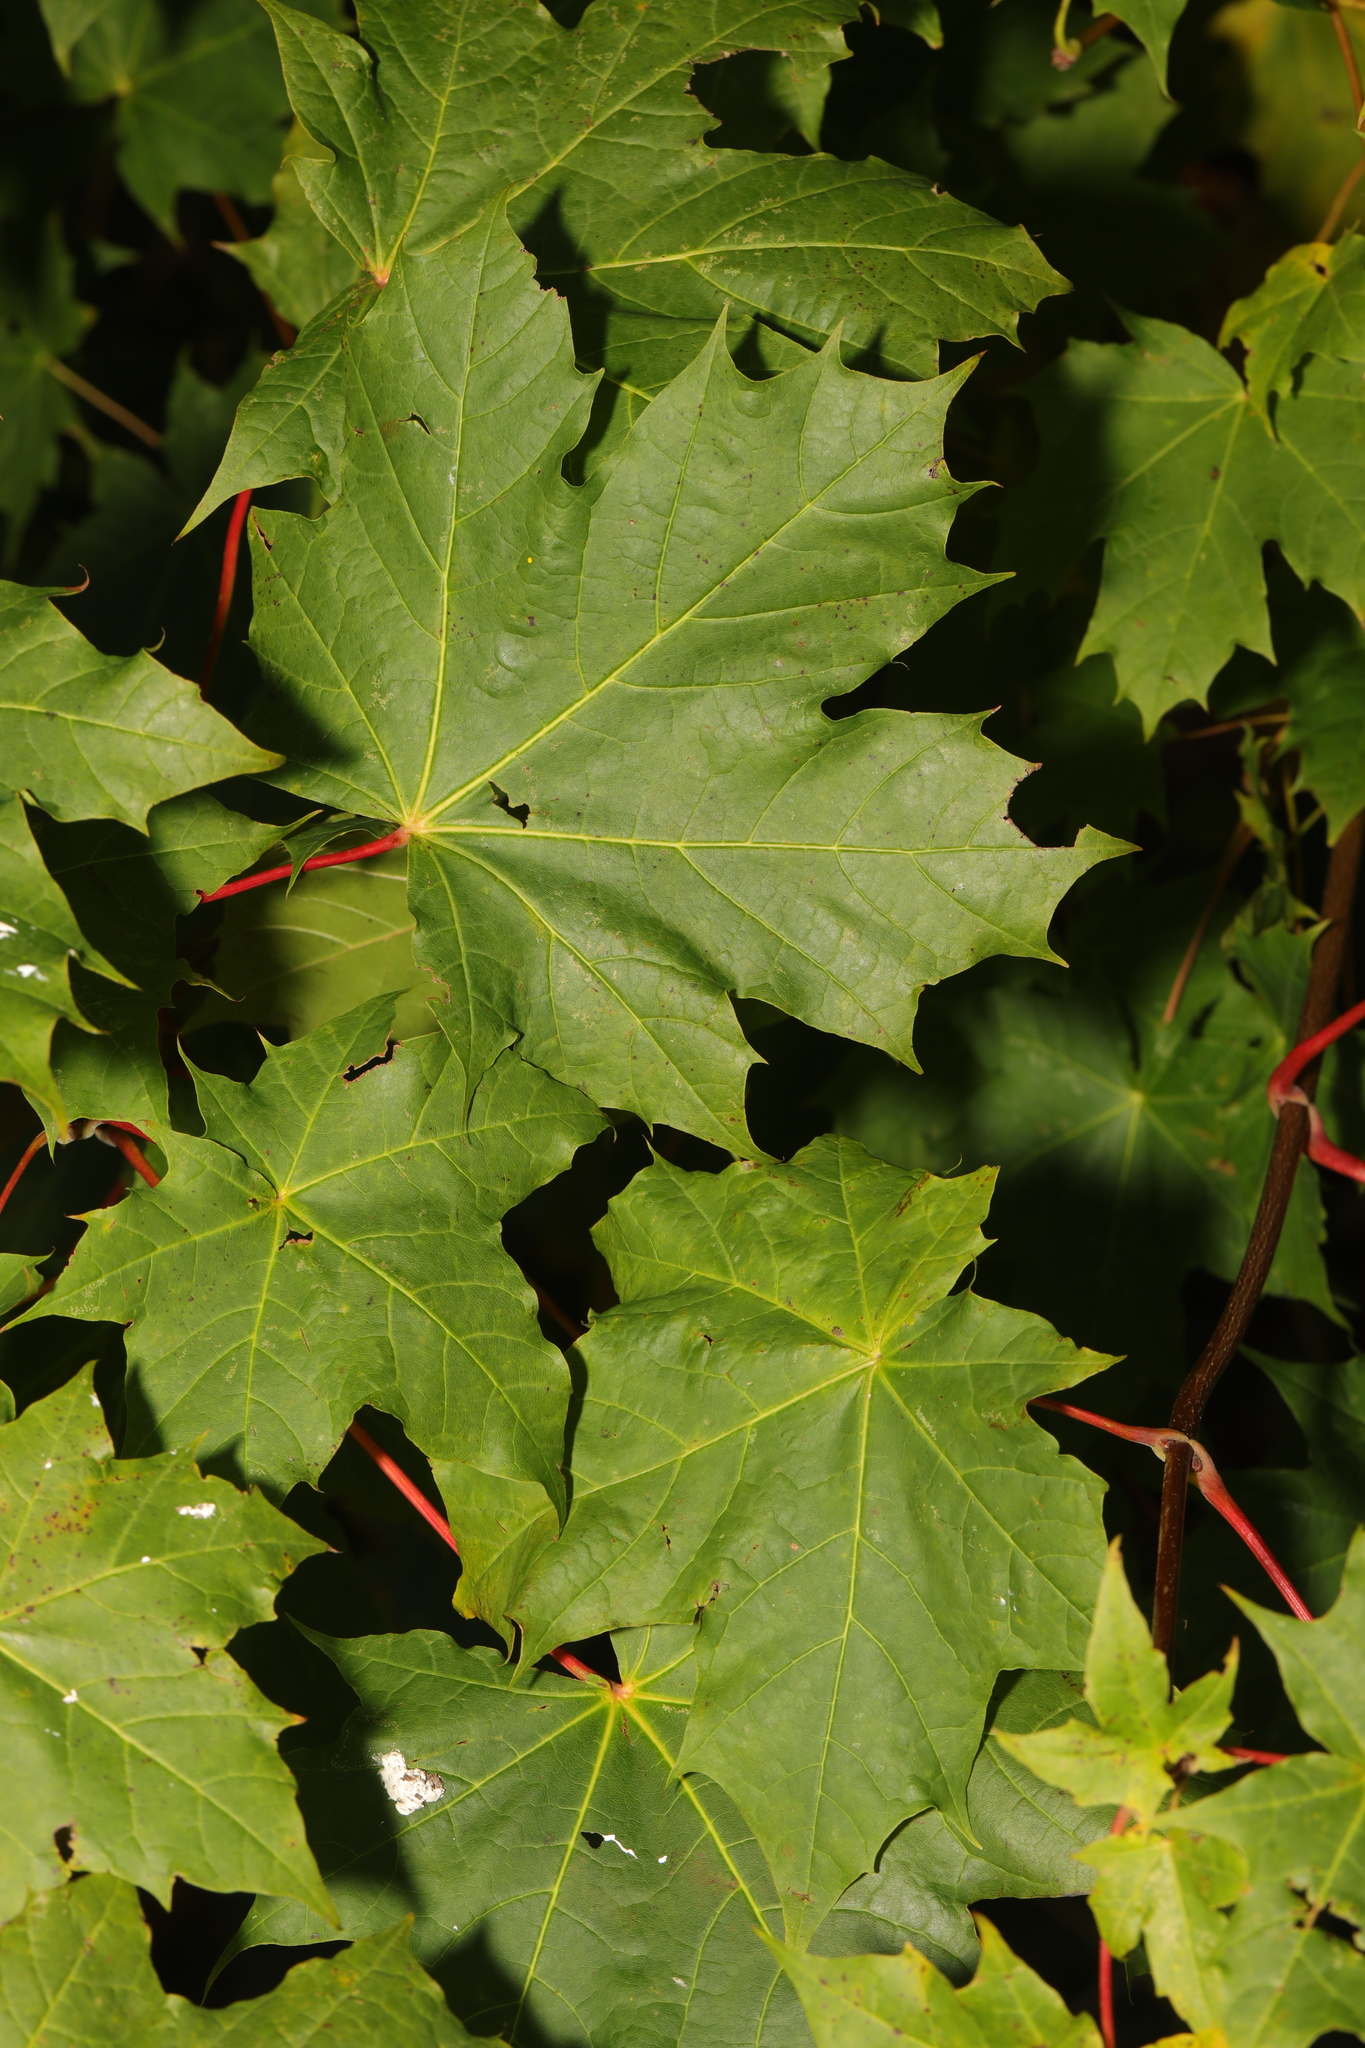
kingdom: Plantae
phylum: Tracheophyta
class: Magnoliopsida
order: Sapindales
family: Sapindaceae
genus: Acer
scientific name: Acer platanoides
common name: Norway maple
